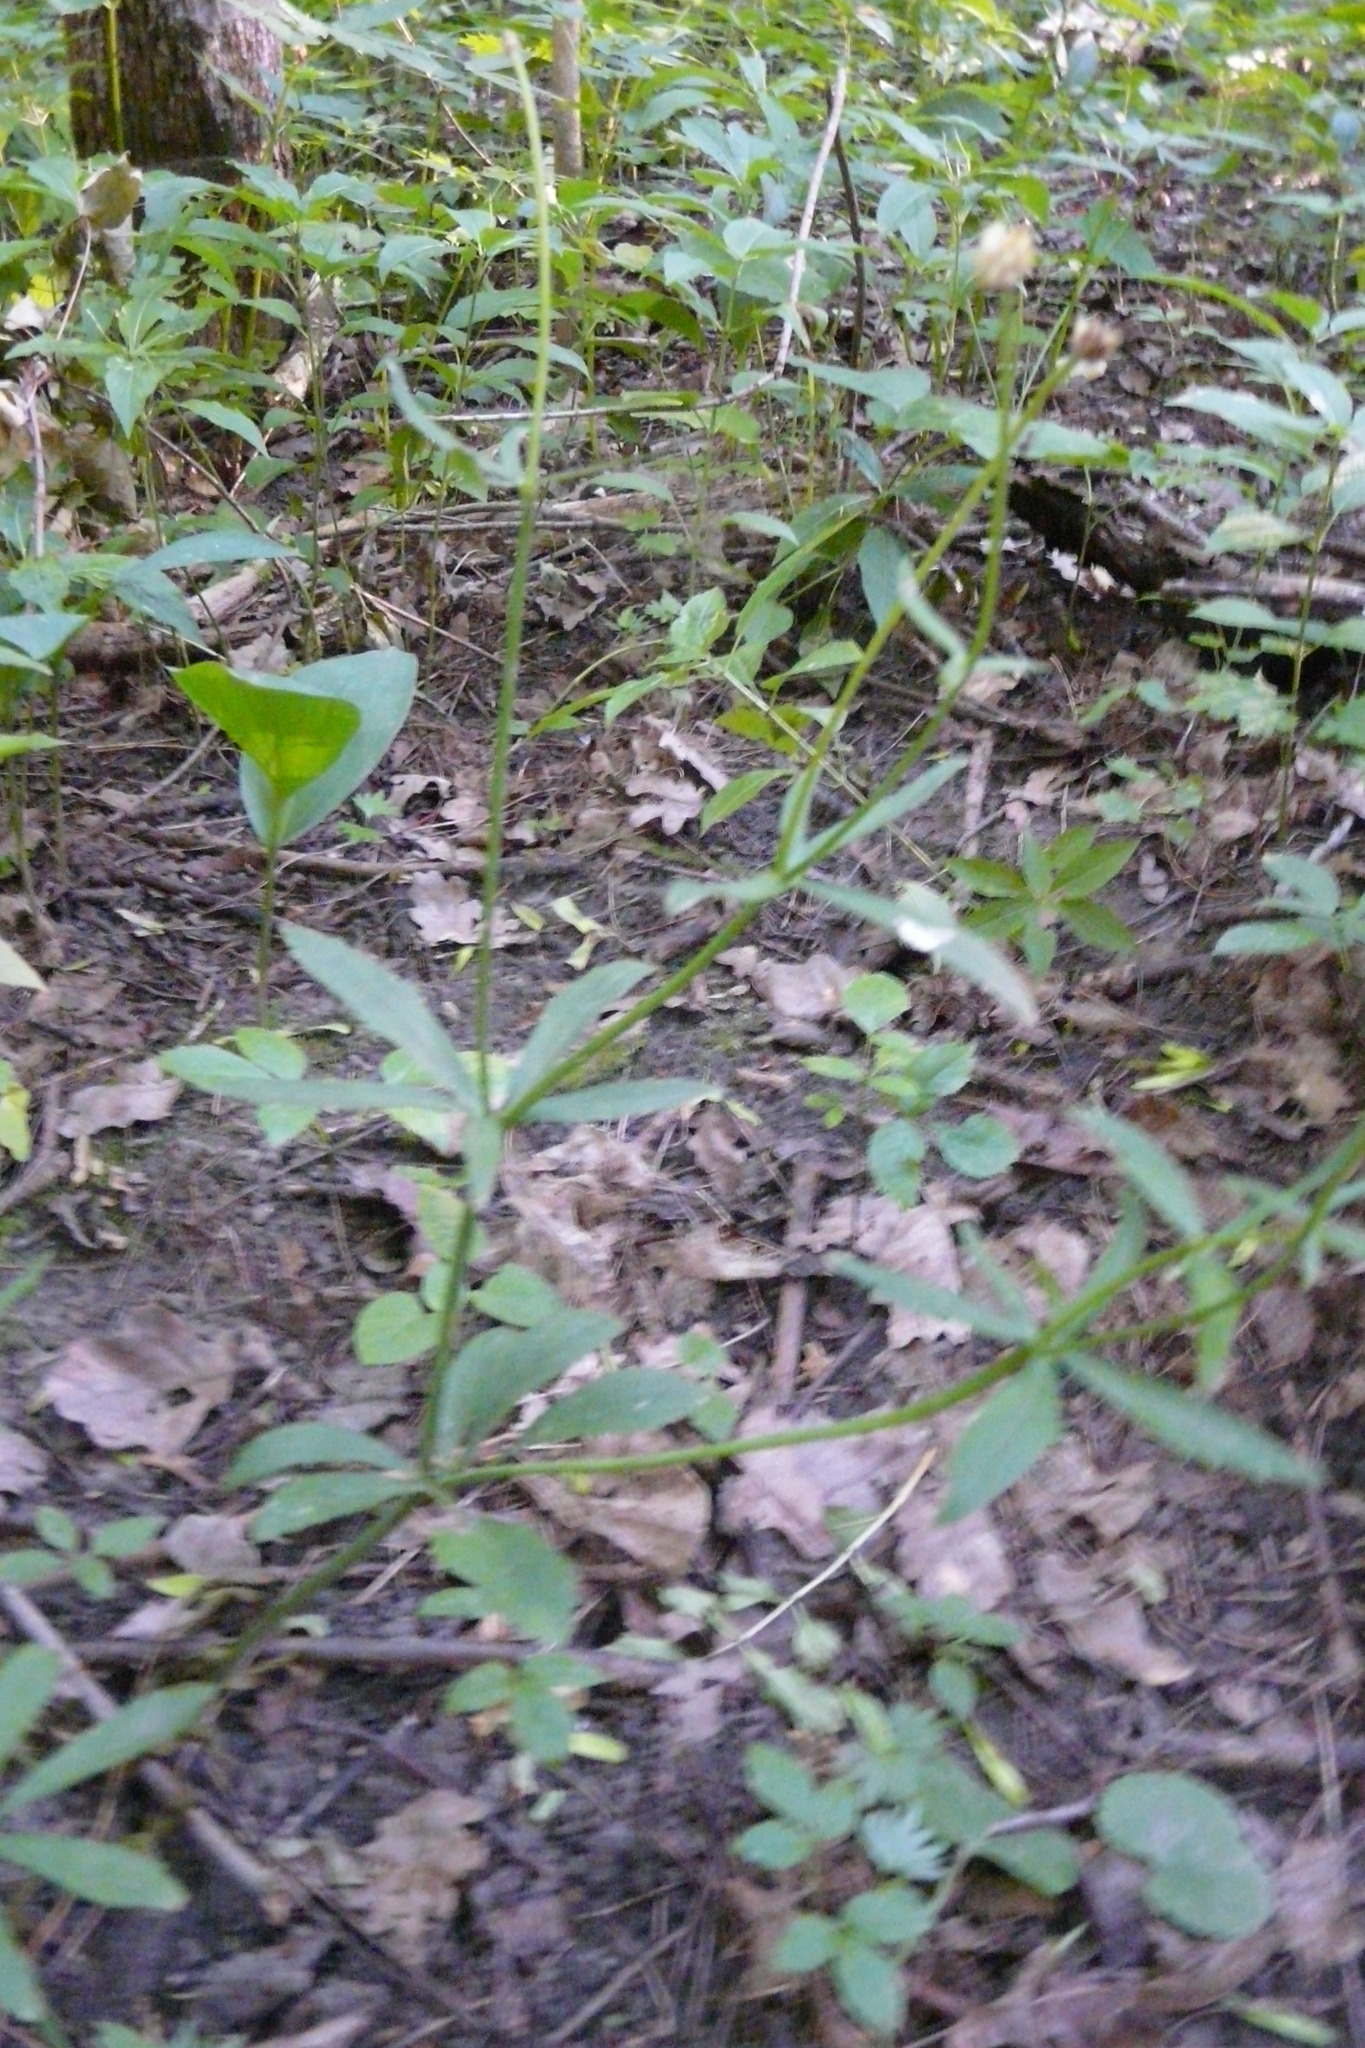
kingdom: Plantae
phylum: Tracheophyta
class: Magnoliopsida
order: Ranunculales
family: Ranunculaceae
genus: Ranunculus
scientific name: Ranunculus cassubicus
